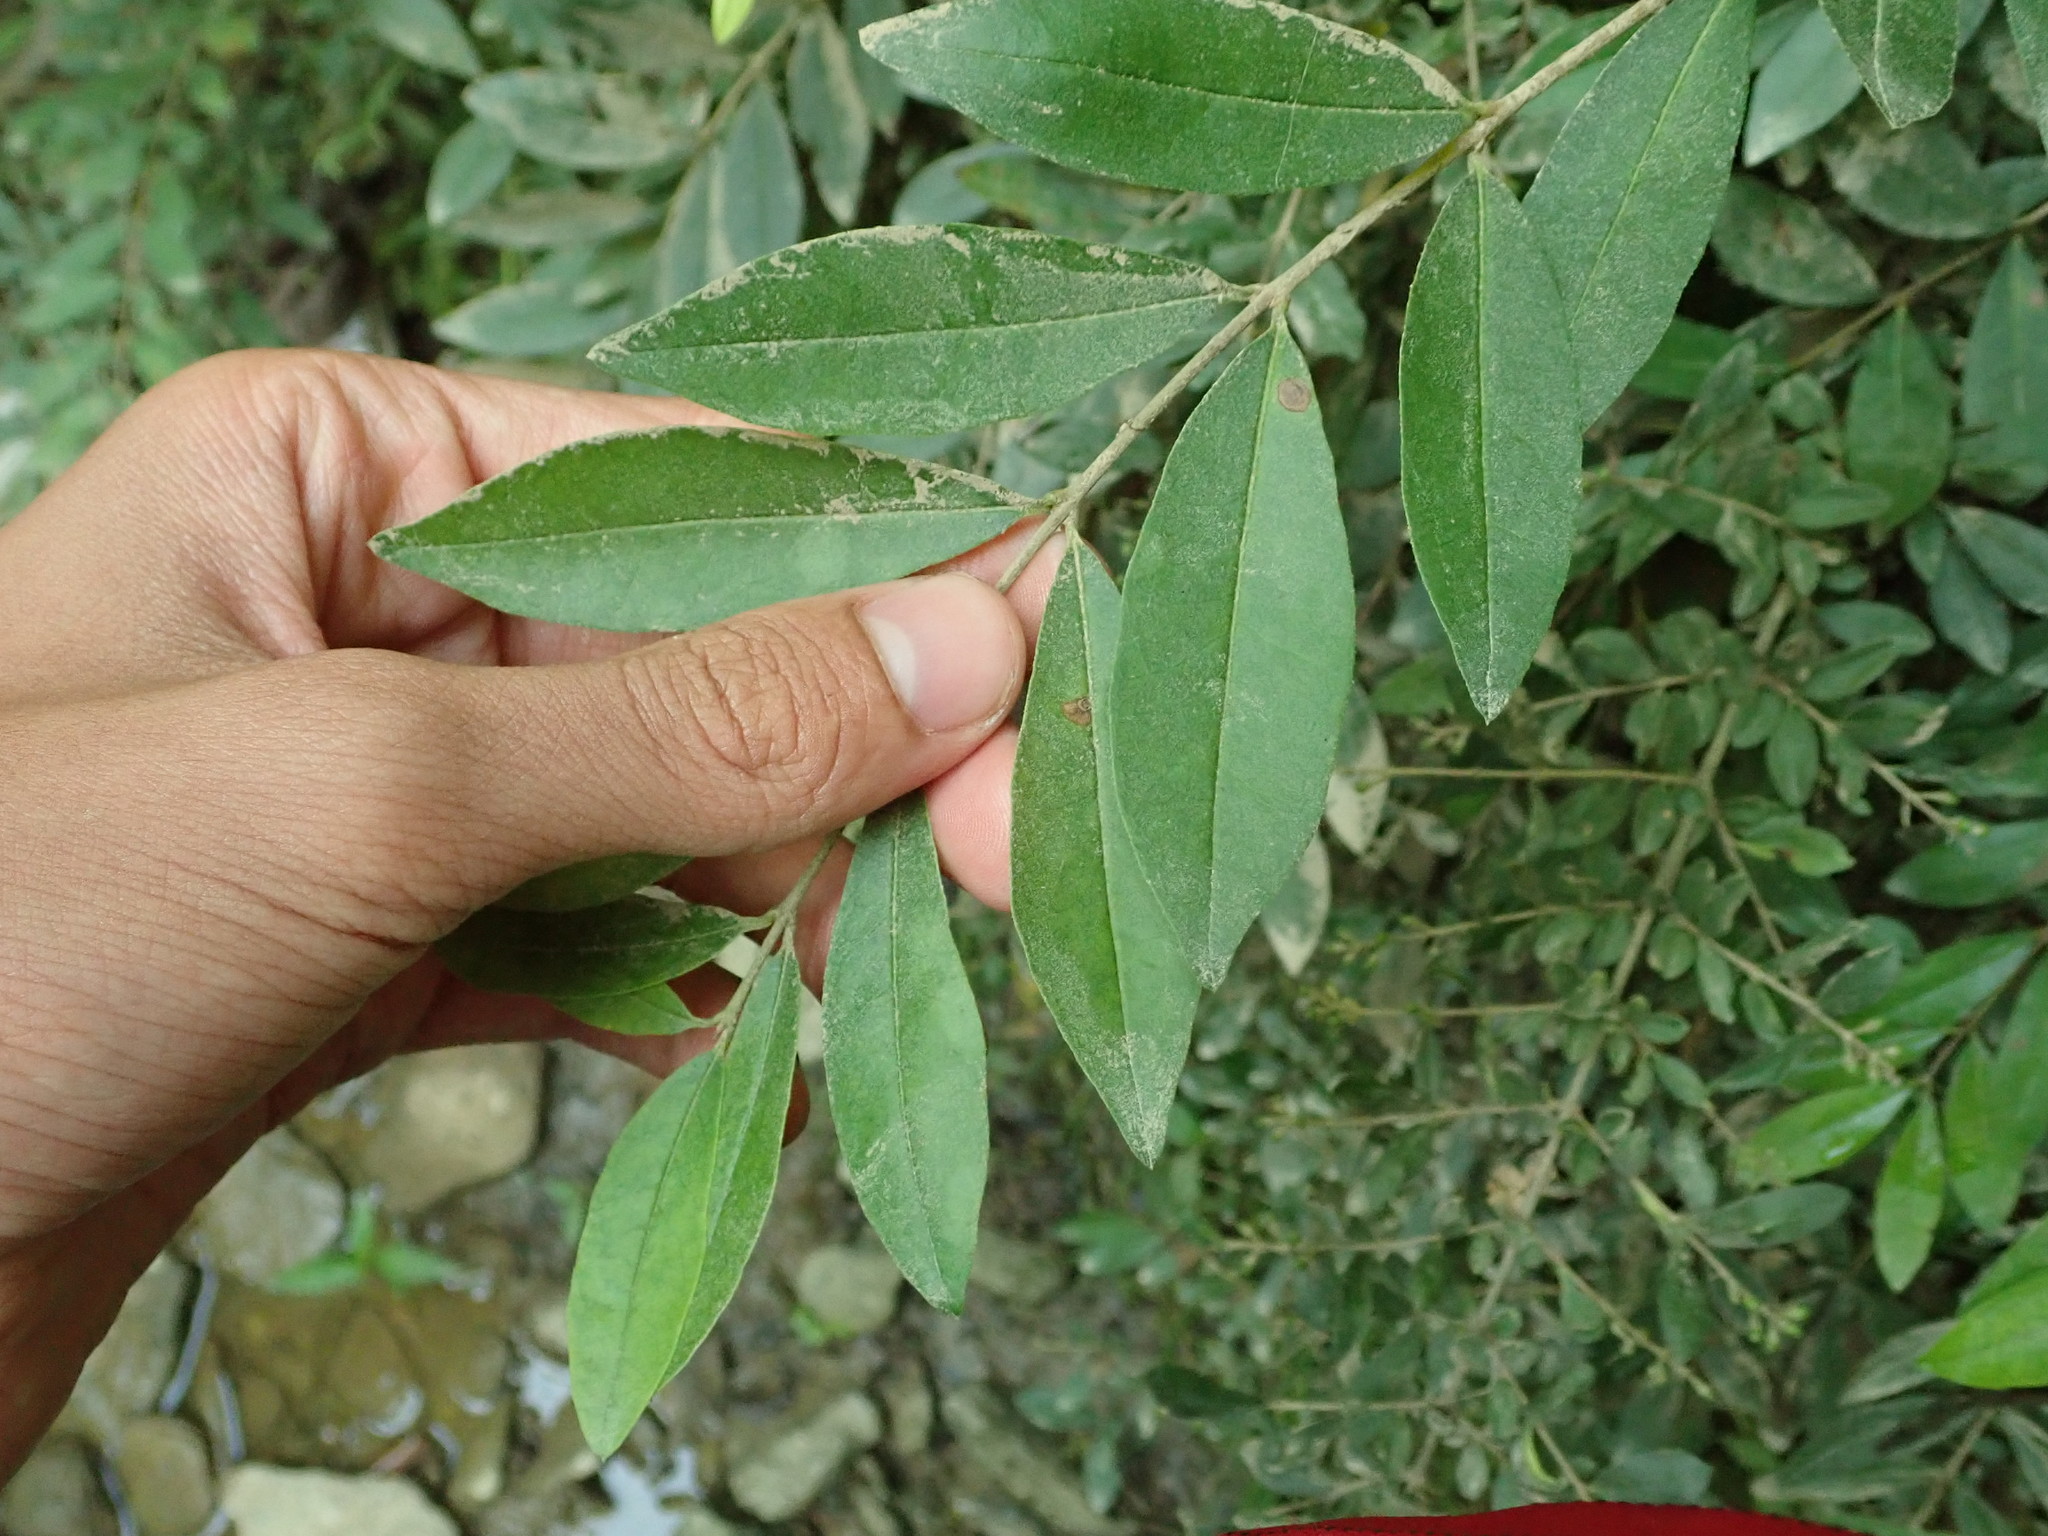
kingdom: Plantae
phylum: Tracheophyta
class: Magnoliopsida
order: Lamiales
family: Oleaceae
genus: Ligustrum
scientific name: Ligustrum obtusifolium
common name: Border privet
